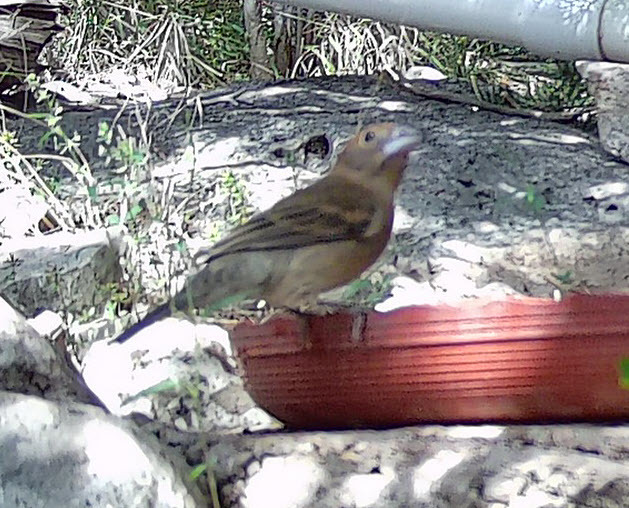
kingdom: Animalia
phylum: Chordata
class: Aves
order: Passeriformes
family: Cardinalidae
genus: Passerina
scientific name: Passerina caerulea
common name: Blue grosbeak
